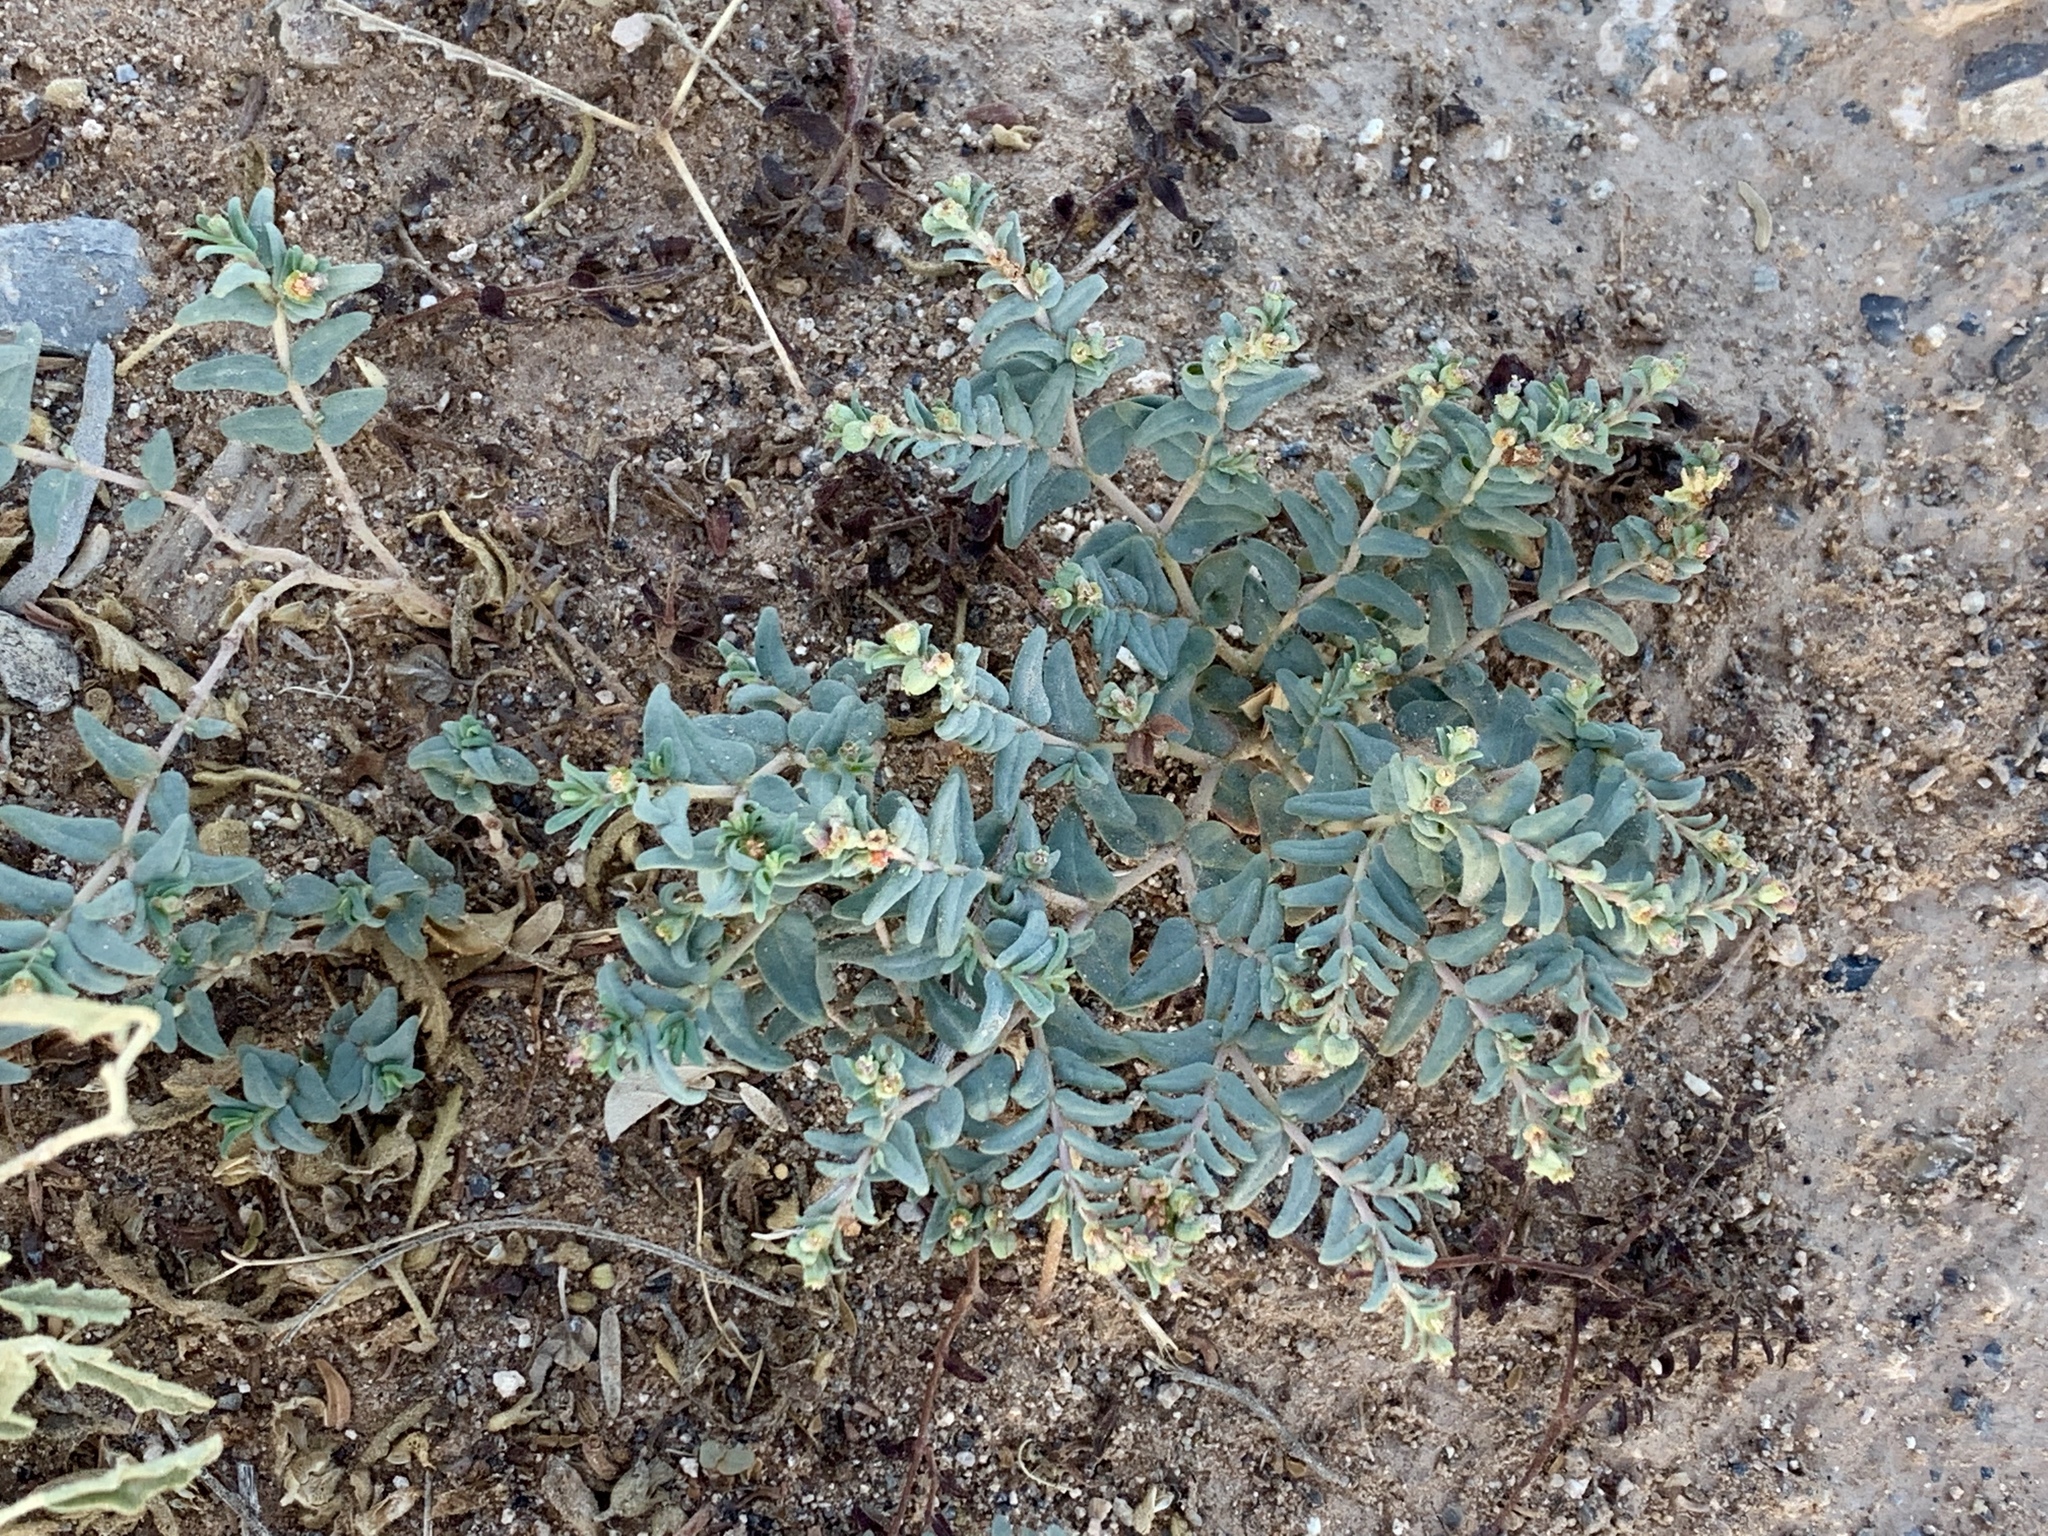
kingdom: Plantae
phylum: Tracheophyta
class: Magnoliopsida
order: Malpighiales
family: Euphorbiaceae
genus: Euphorbia
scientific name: Euphorbia lata
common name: Hoary euphorbia
